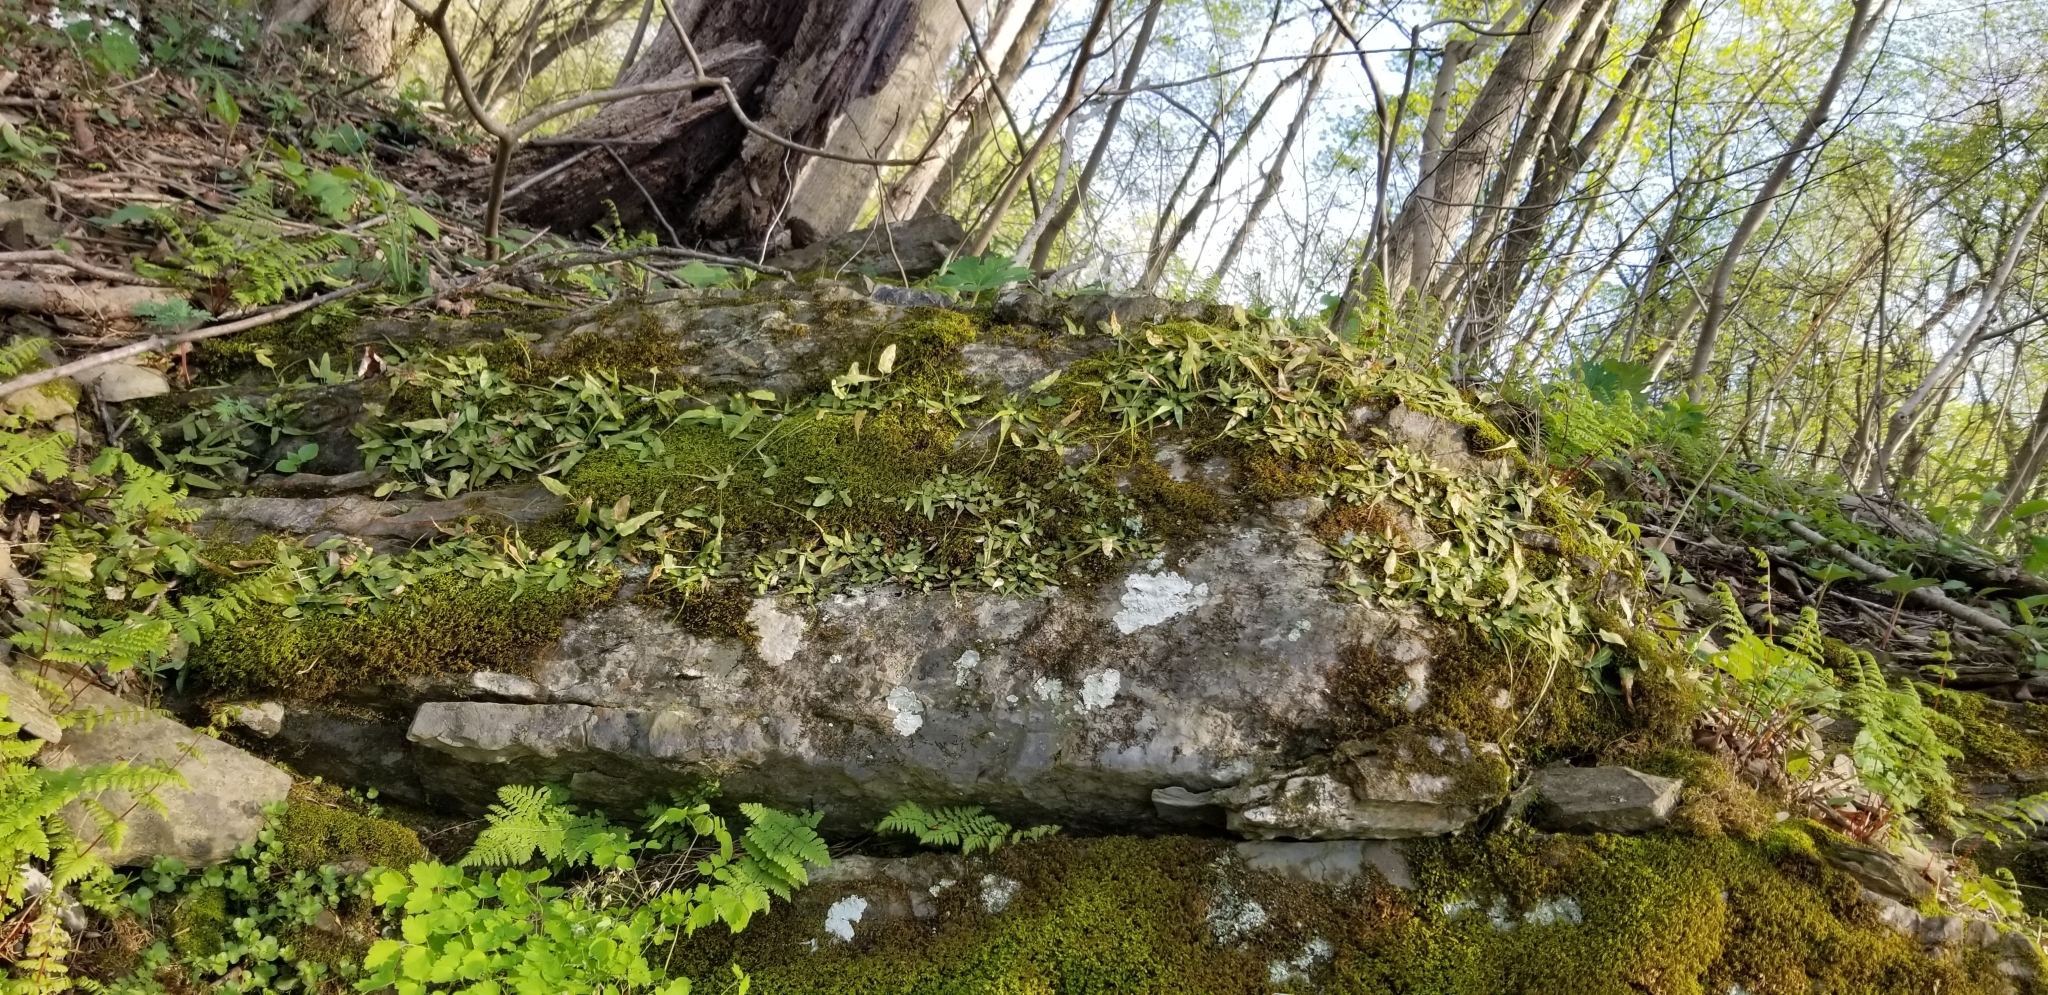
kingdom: Plantae
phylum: Tracheophyta
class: Polypodiopsida
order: Polypodiales
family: Aspleniaceae
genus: Asplenium
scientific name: Asplenium rhizophyllum
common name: Walking fern
